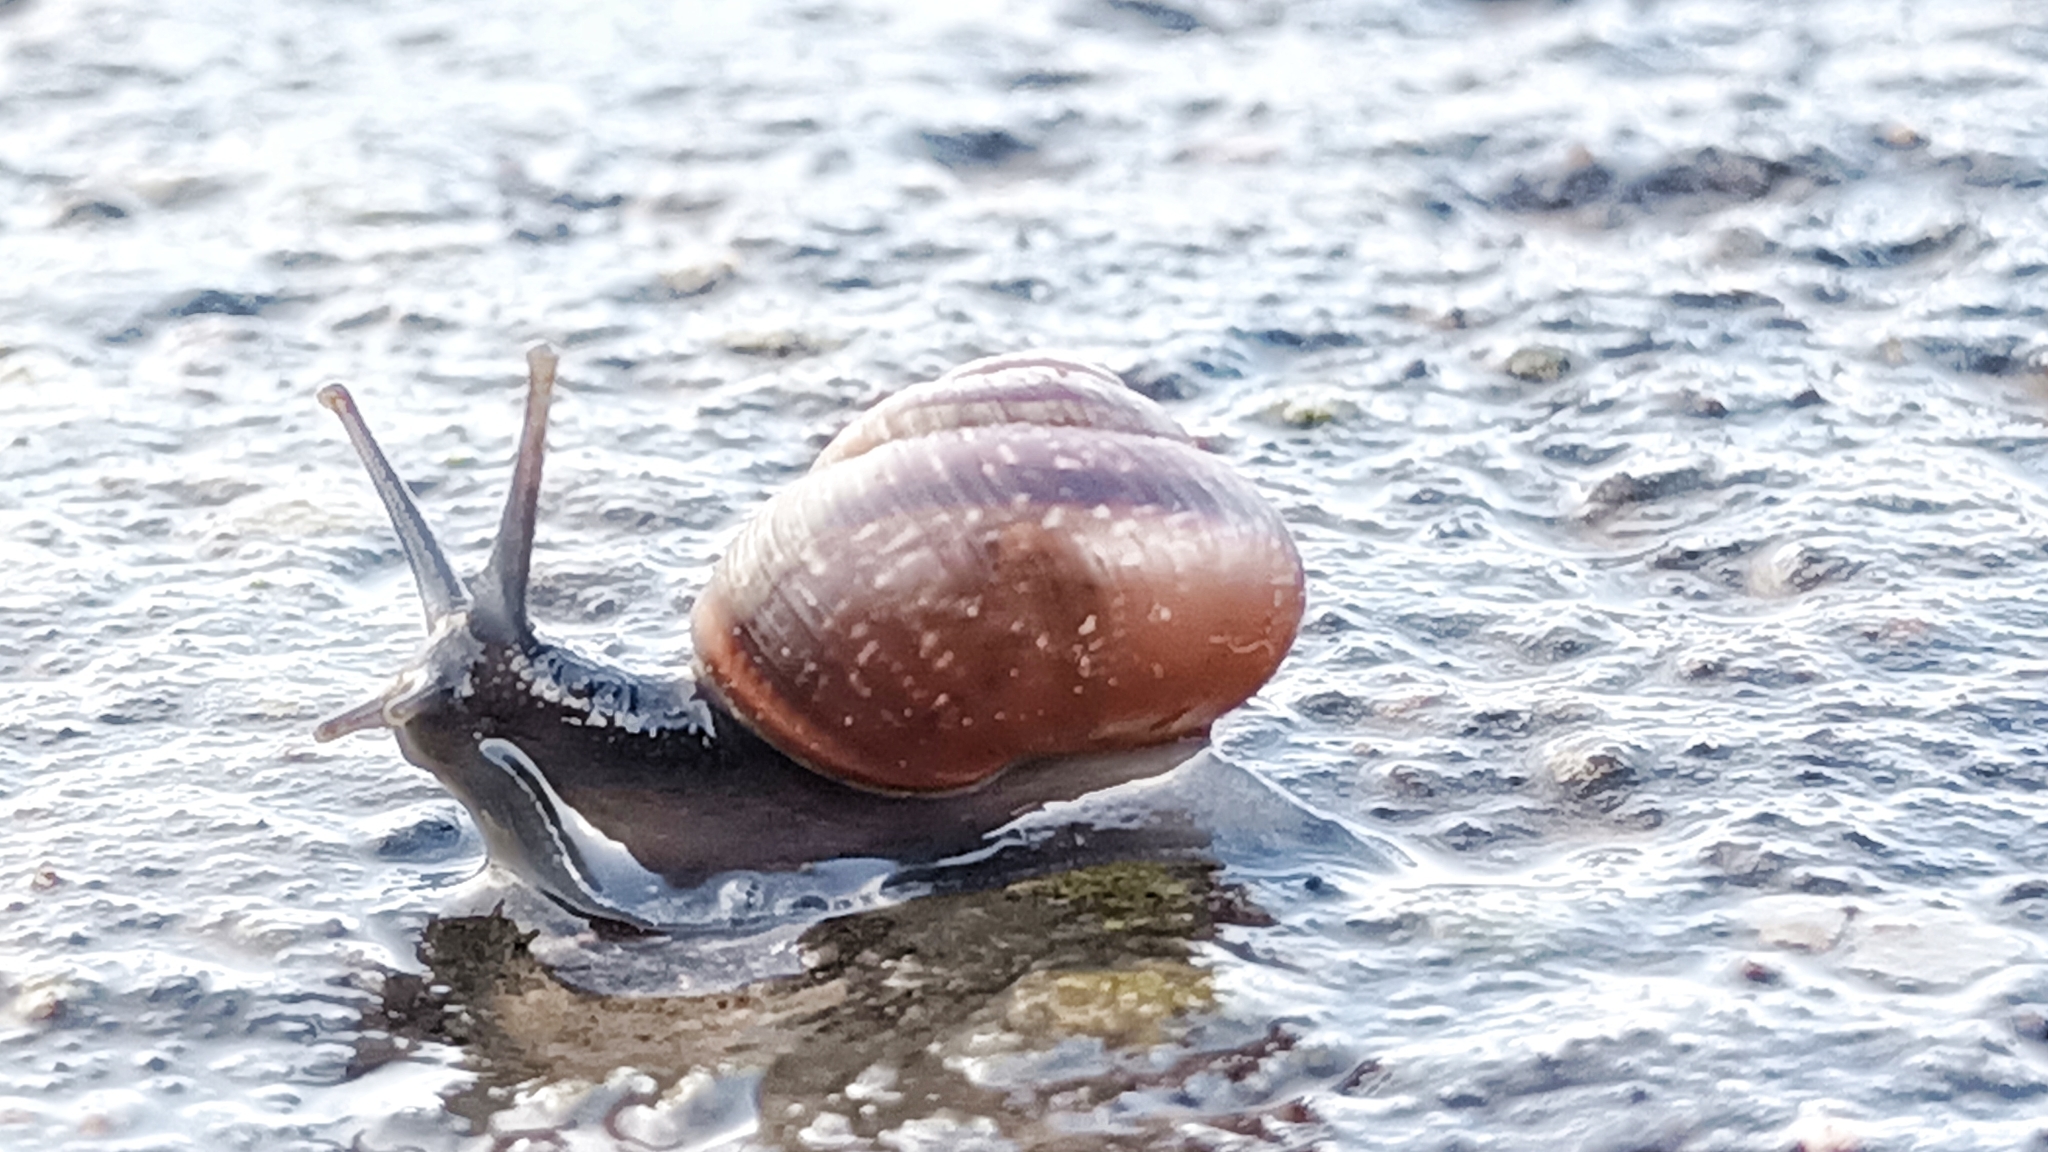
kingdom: Animalia
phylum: Mollusca
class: Gastropoda
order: Stylommatophora
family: Helicidae
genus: Arianta
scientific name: Arianta arbustorum
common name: Copse snail
